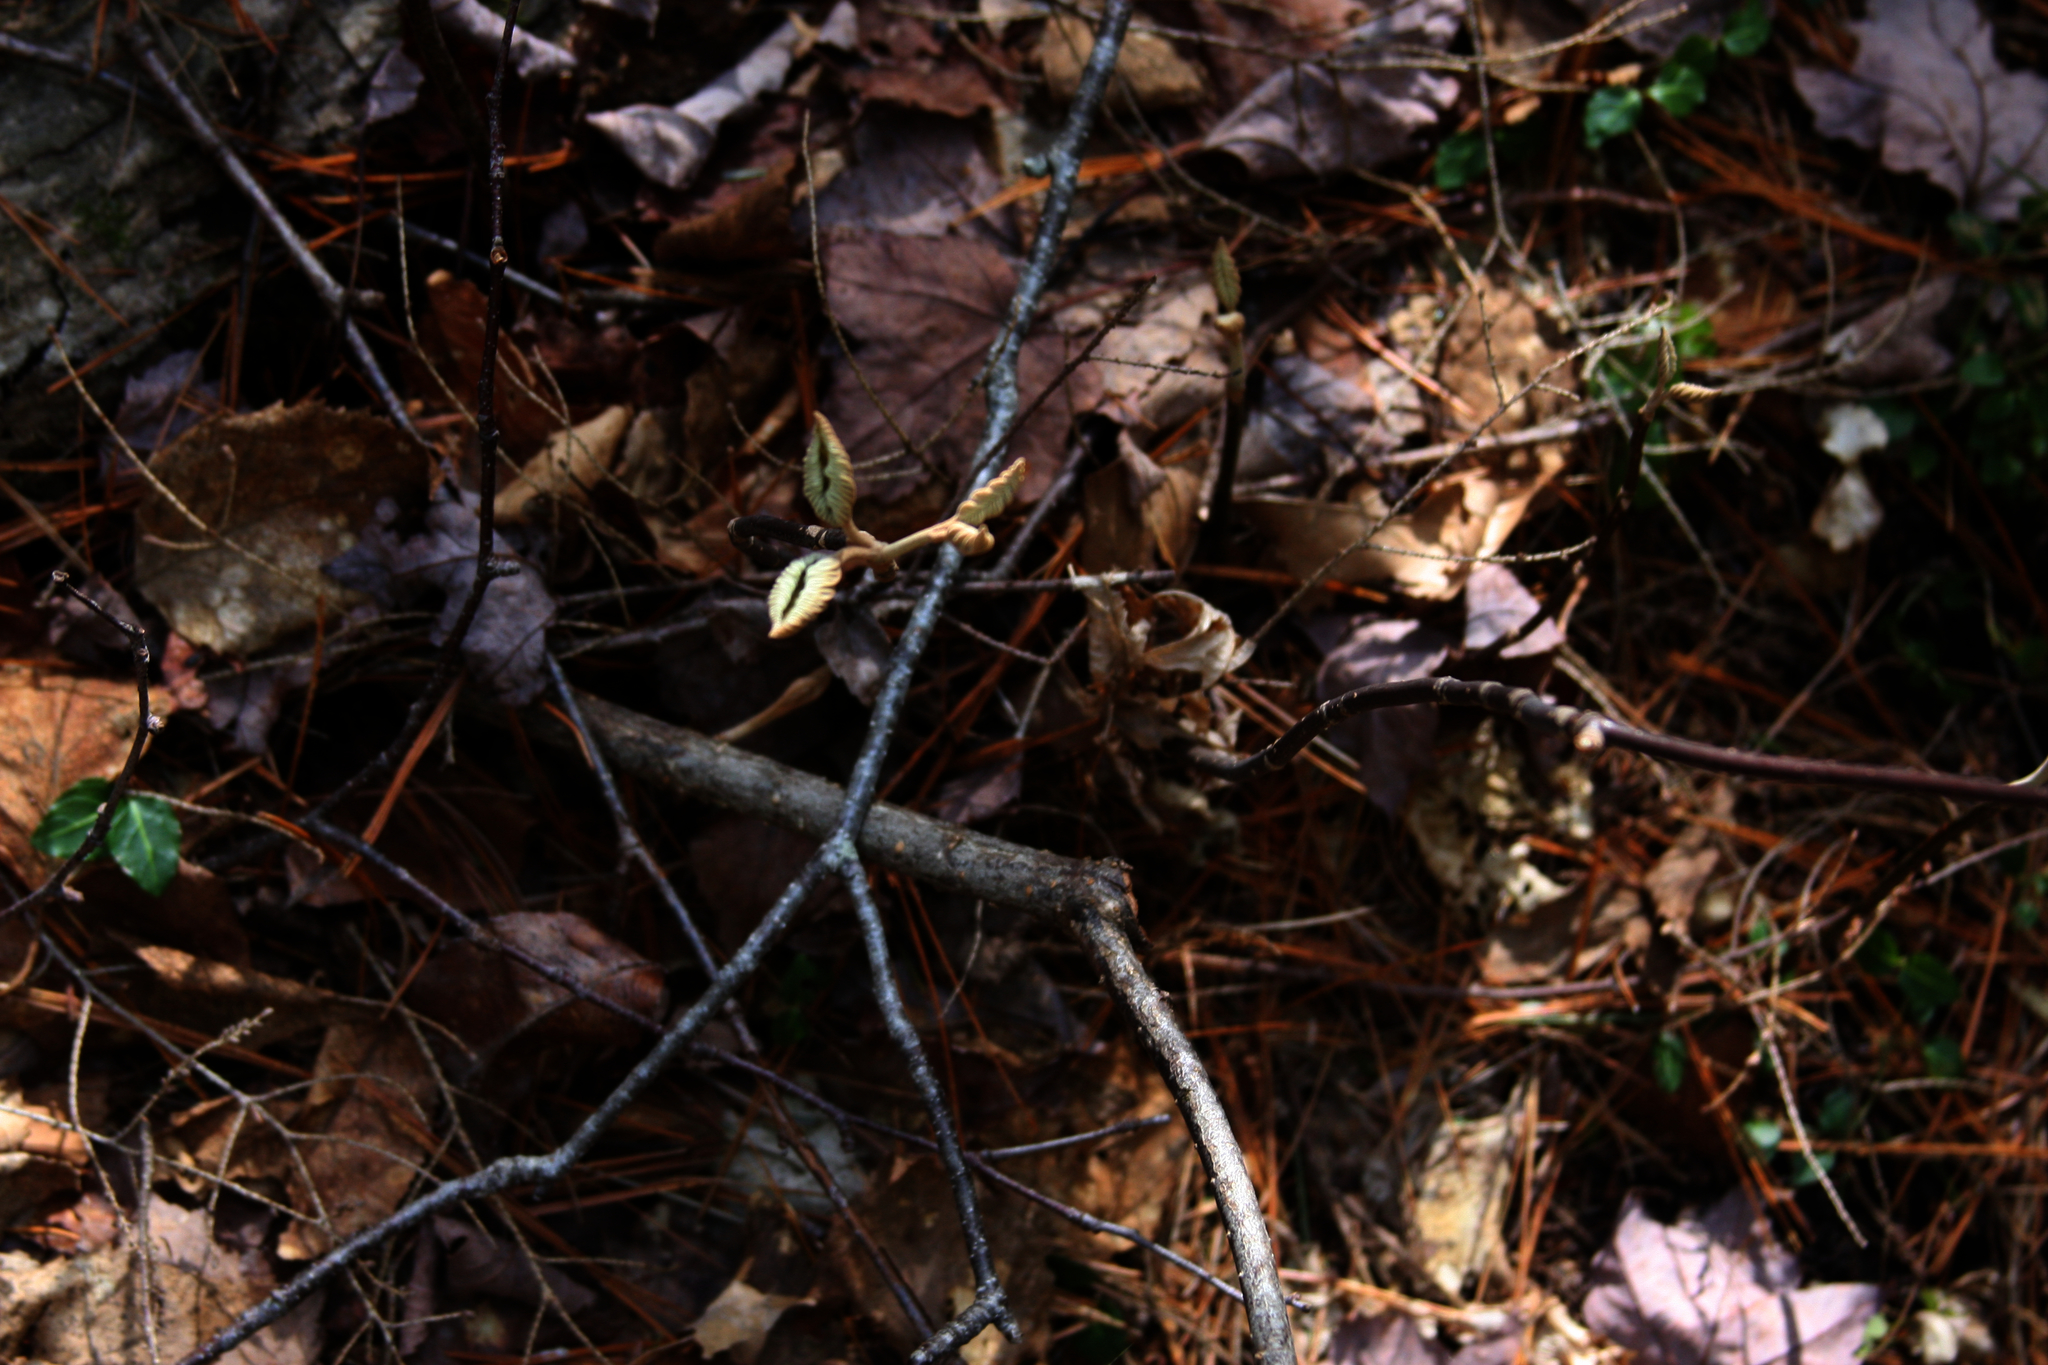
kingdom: Plantae
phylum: Tracheophyta
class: Magnoliopsida
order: Dipsacales
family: Viburnaceae
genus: Viburnum
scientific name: Viburnum lantanoides
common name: Hobblebush
